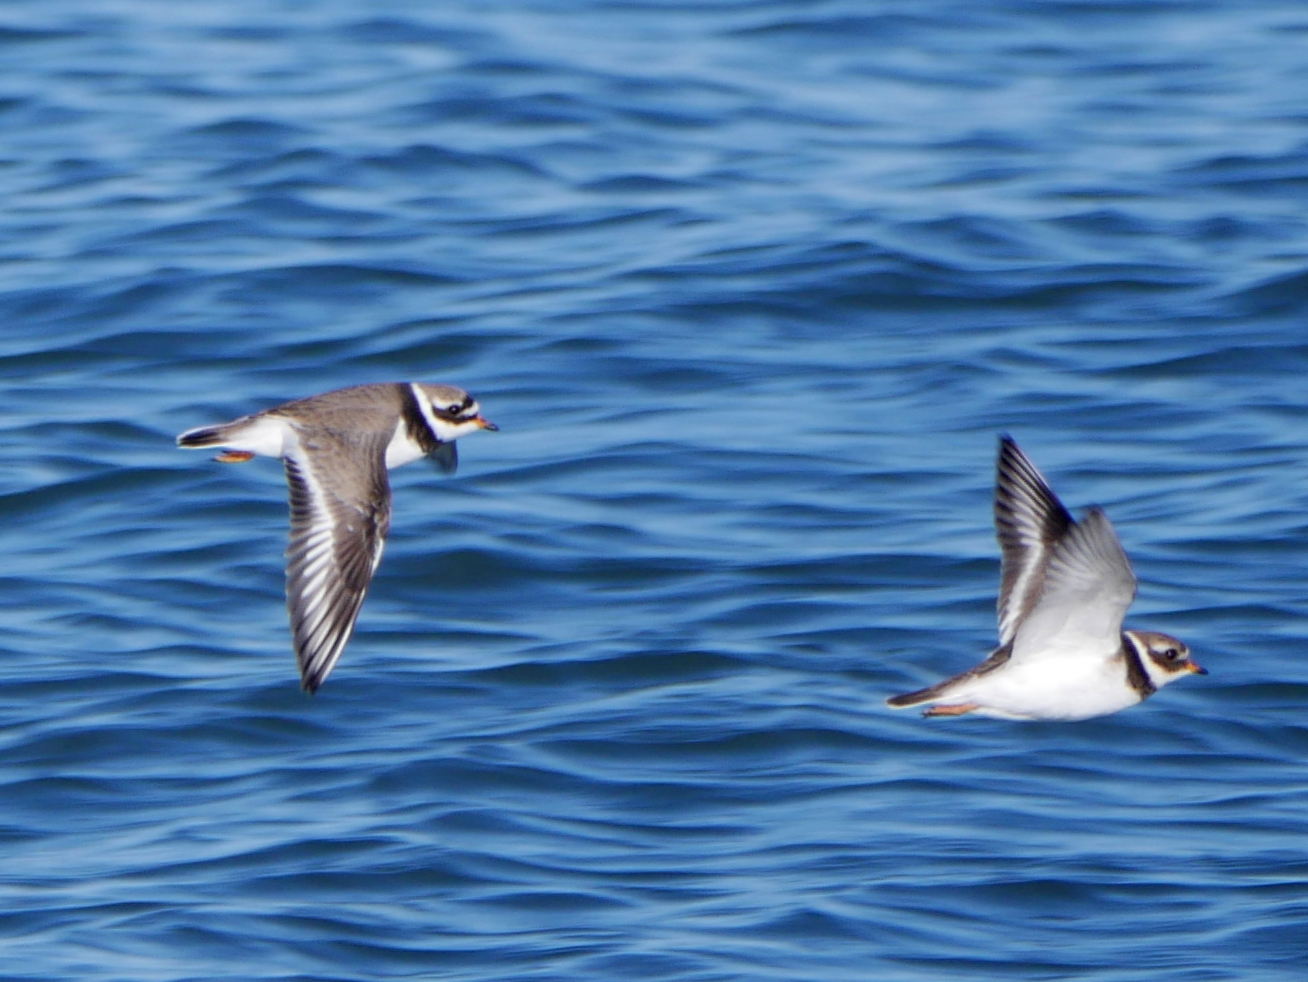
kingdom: Animalia
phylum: Chordata
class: Aves
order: Charadriiformes
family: Charadriidae
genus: Charadrius
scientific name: Charadrius hiaticula
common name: Common ringed plover
